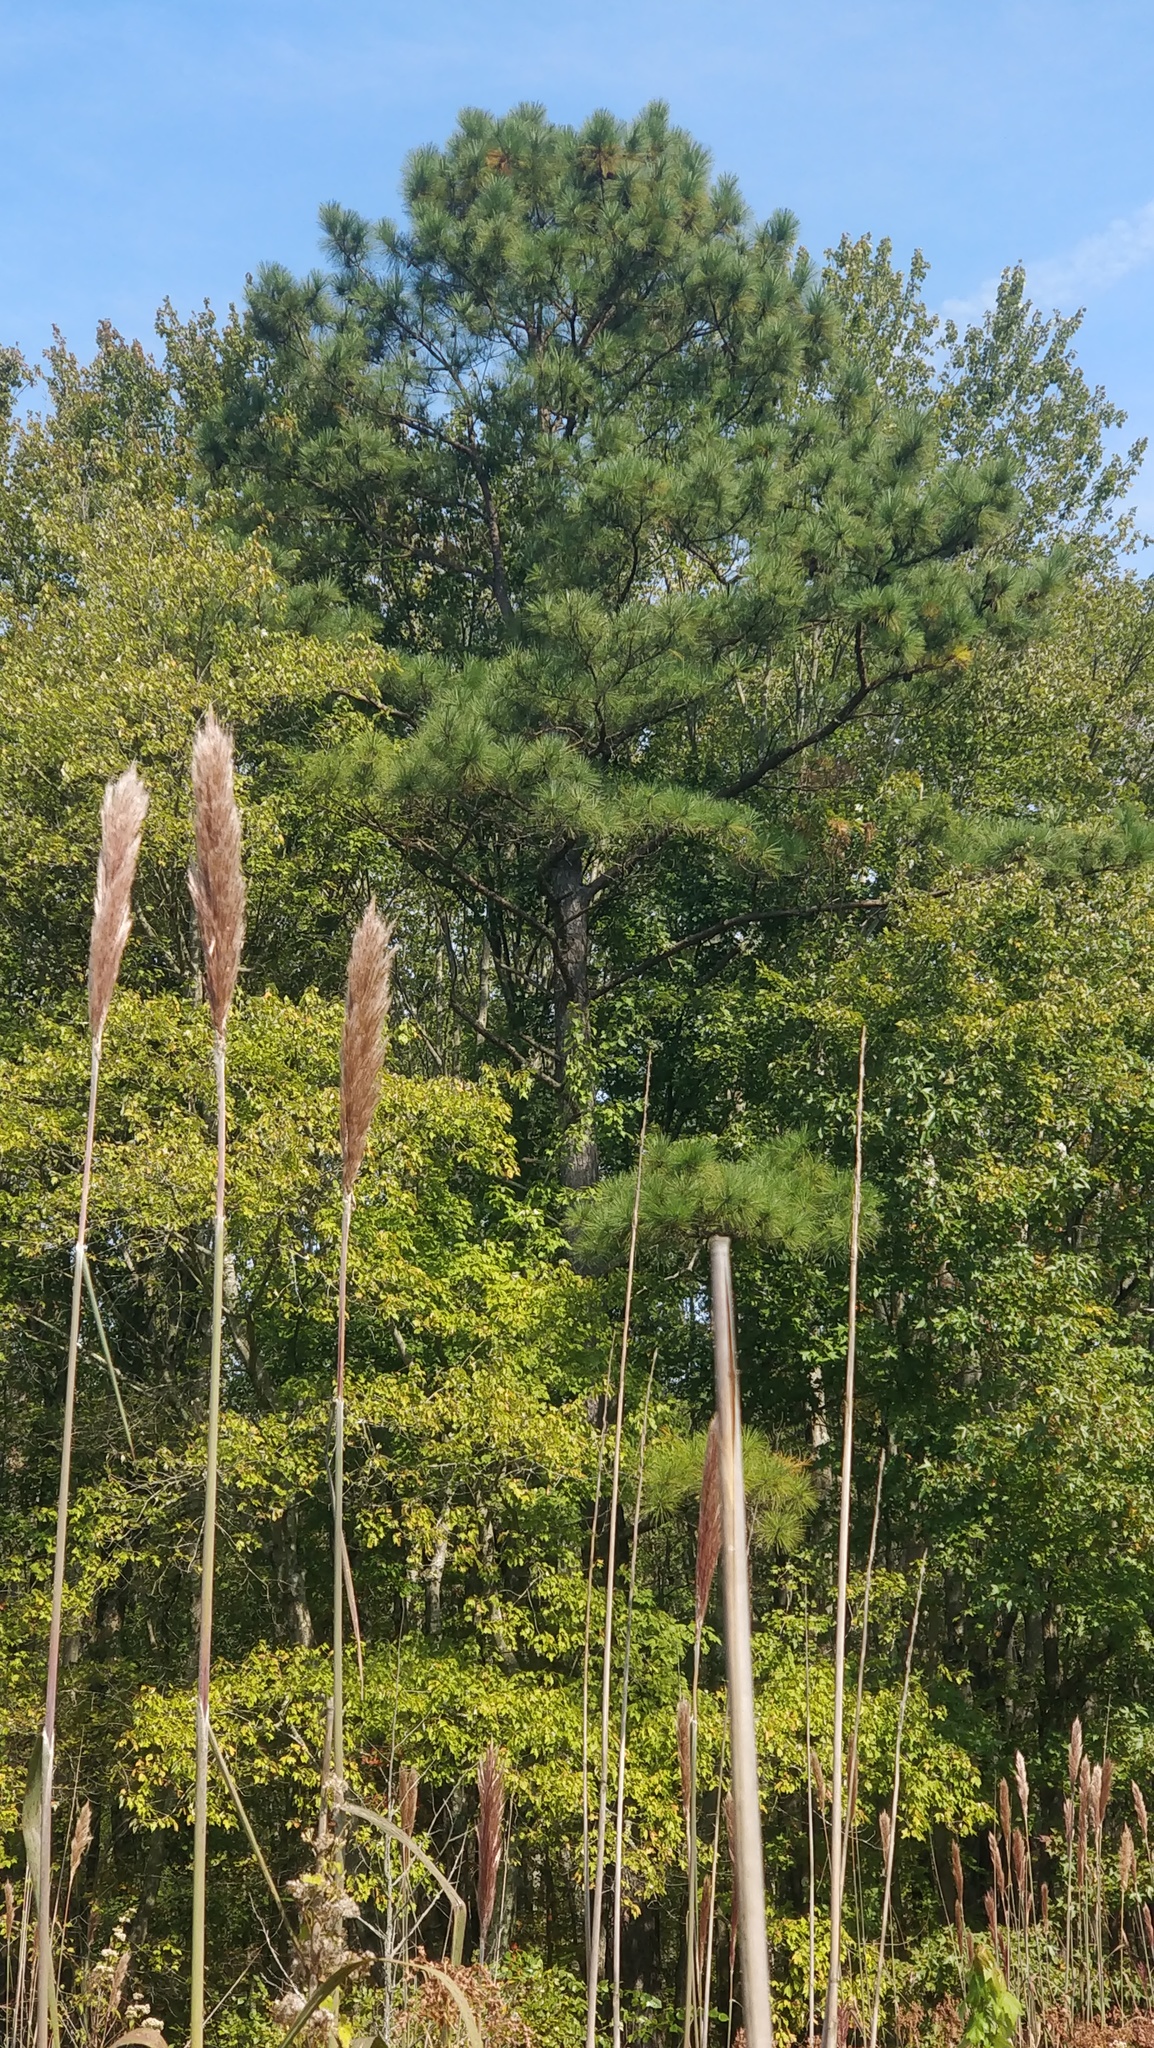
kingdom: Plantae
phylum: Tracheophyta
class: Liliopsida
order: Poales
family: Poaceae
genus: Erianthus
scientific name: Erianthus giganteus
